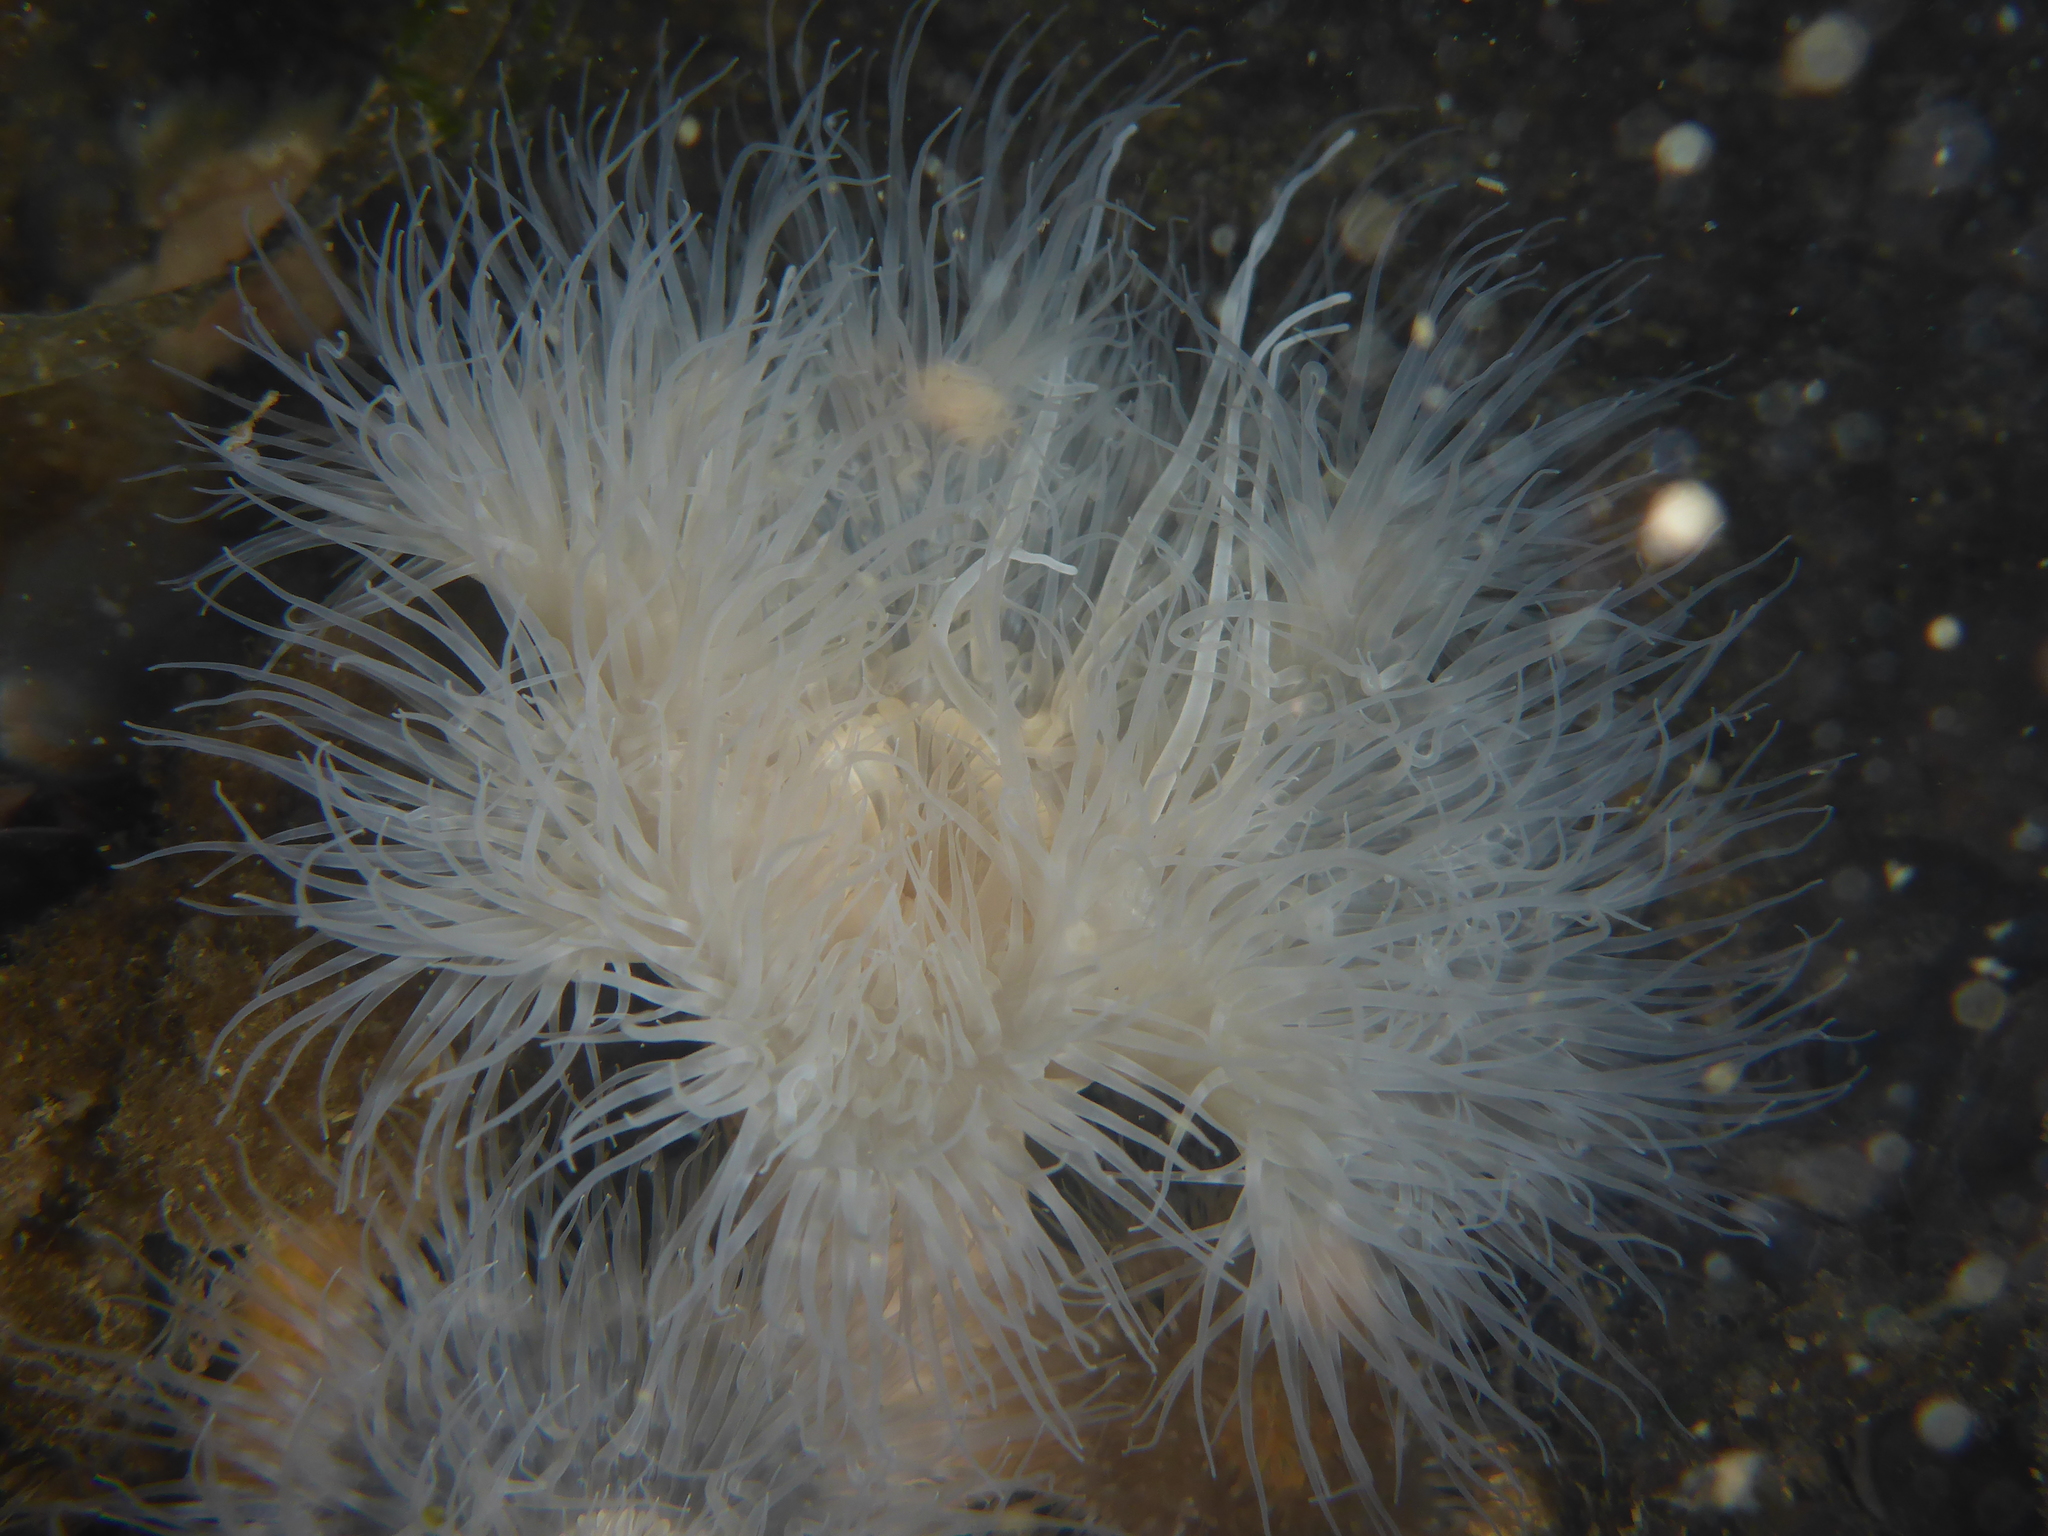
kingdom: Animalia
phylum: Cnidaria
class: Anthozoa
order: Actiniaria
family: Metridiidae
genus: Metridium
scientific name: Metridium senile
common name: Clonal plumose anemone
